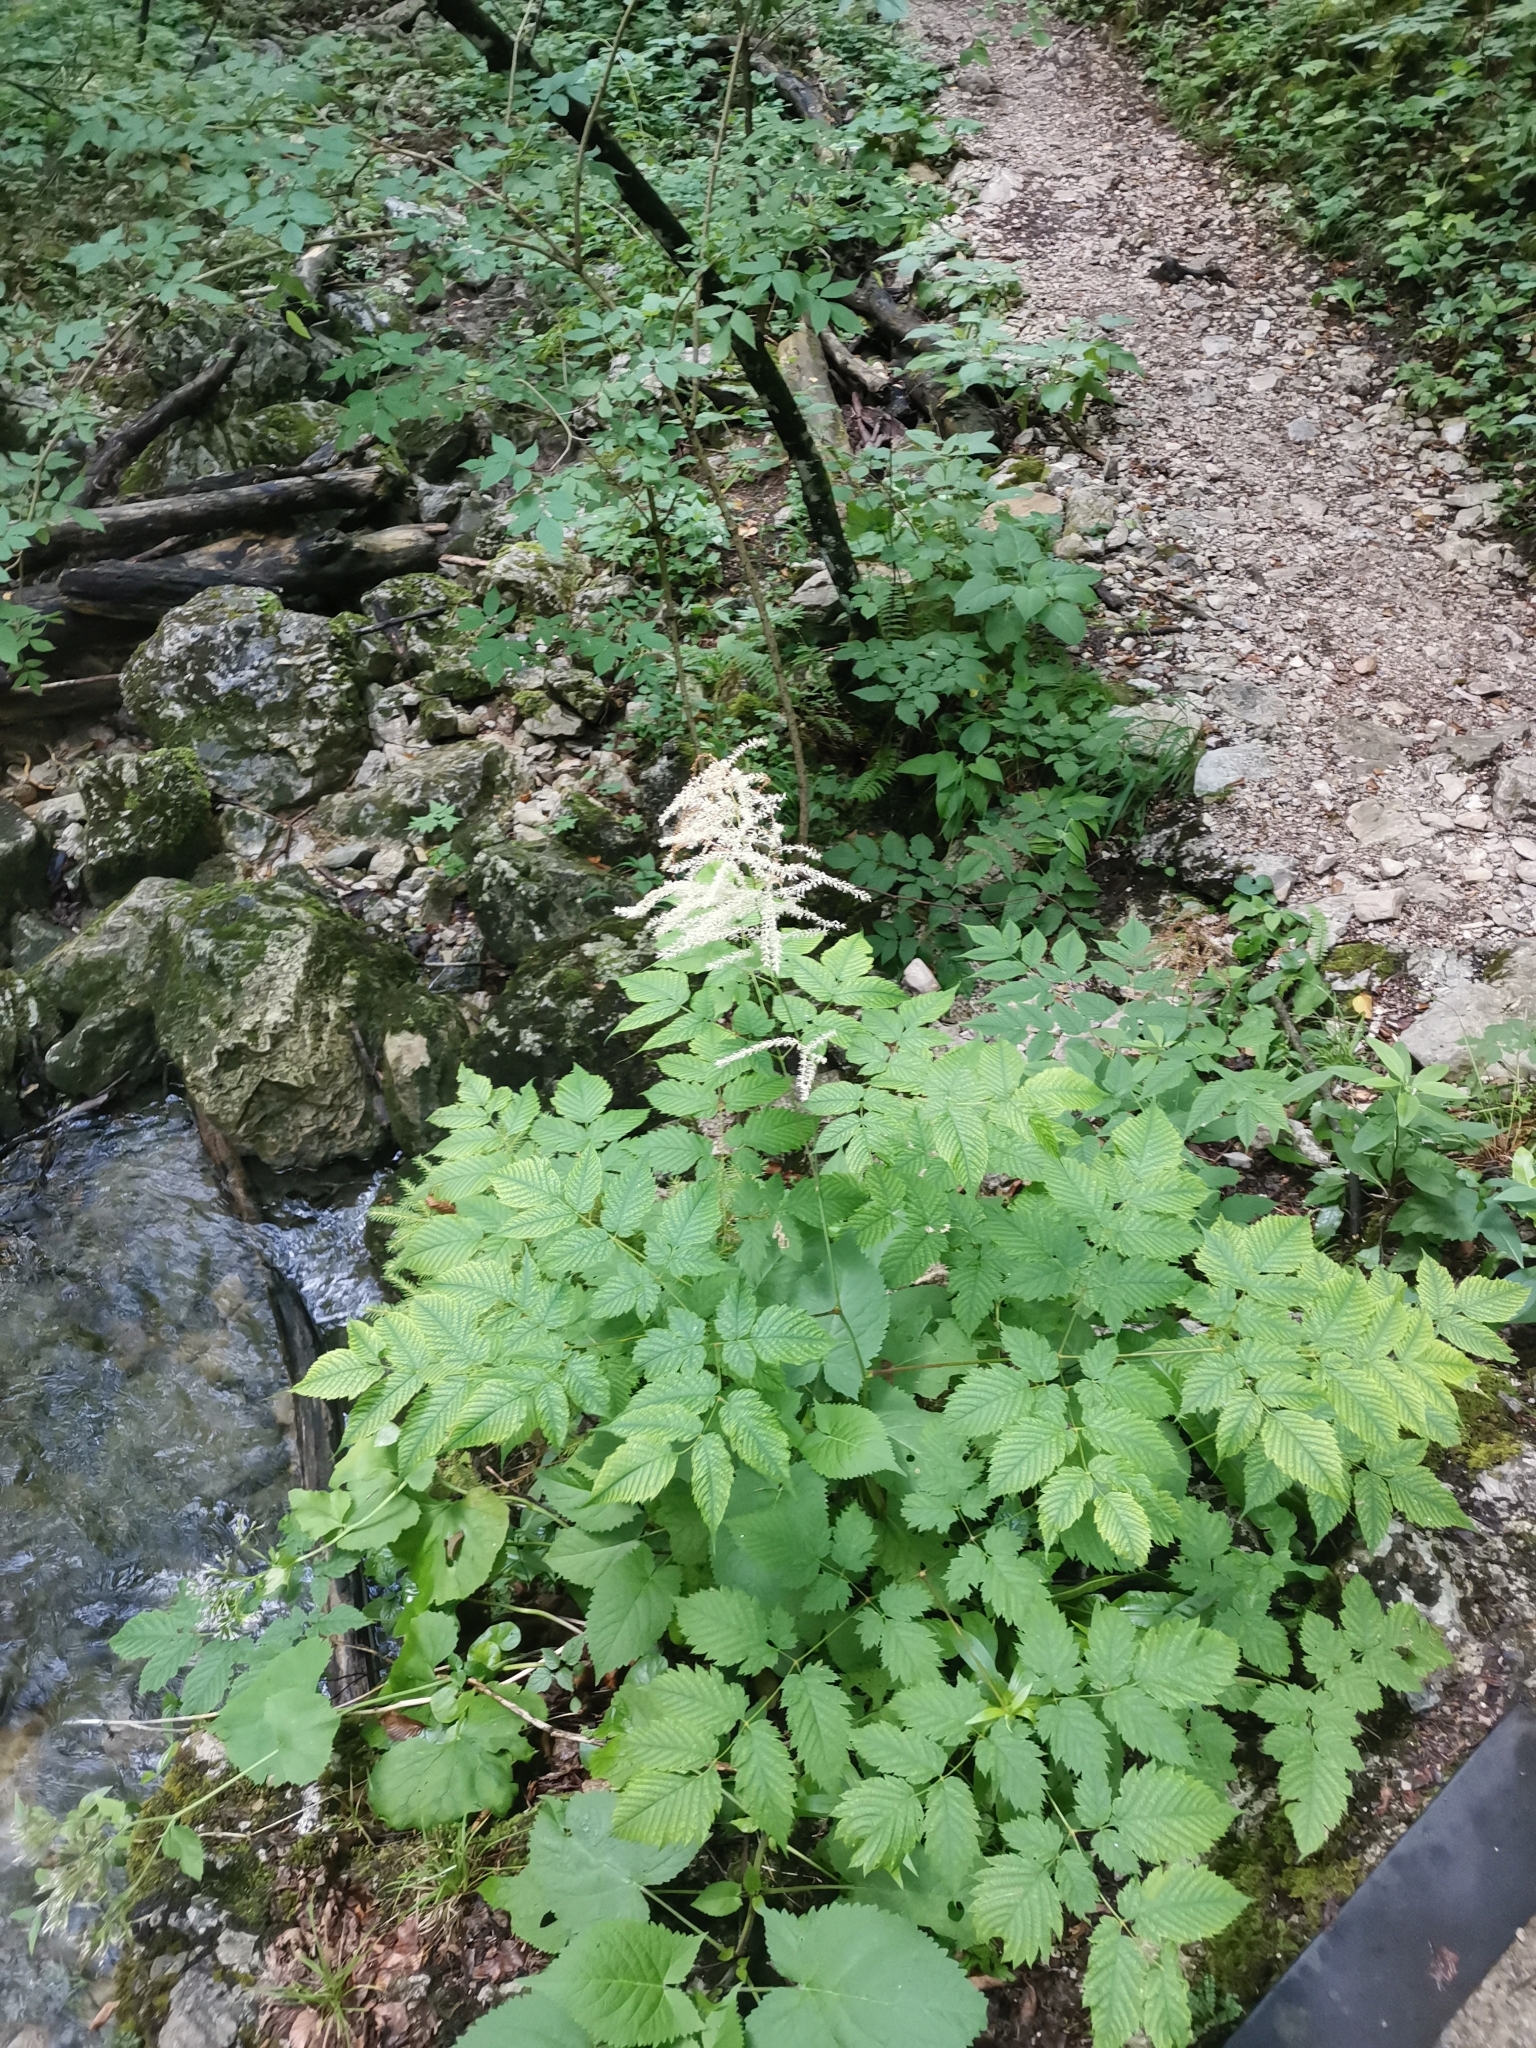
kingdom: Plantae
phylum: Tracheophyta
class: Magnoliopsida
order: Rosales
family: Rosaceae
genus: Aruncus
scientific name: Aruncus dioicus
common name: Buck's-beard
